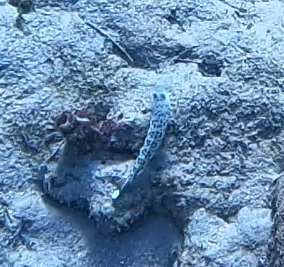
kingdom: Animalia
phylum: Chordata
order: Perciformes
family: Pinguipedidae
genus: Parapercis
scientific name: Parapercis hexophtalma
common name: Speckled sandperch
